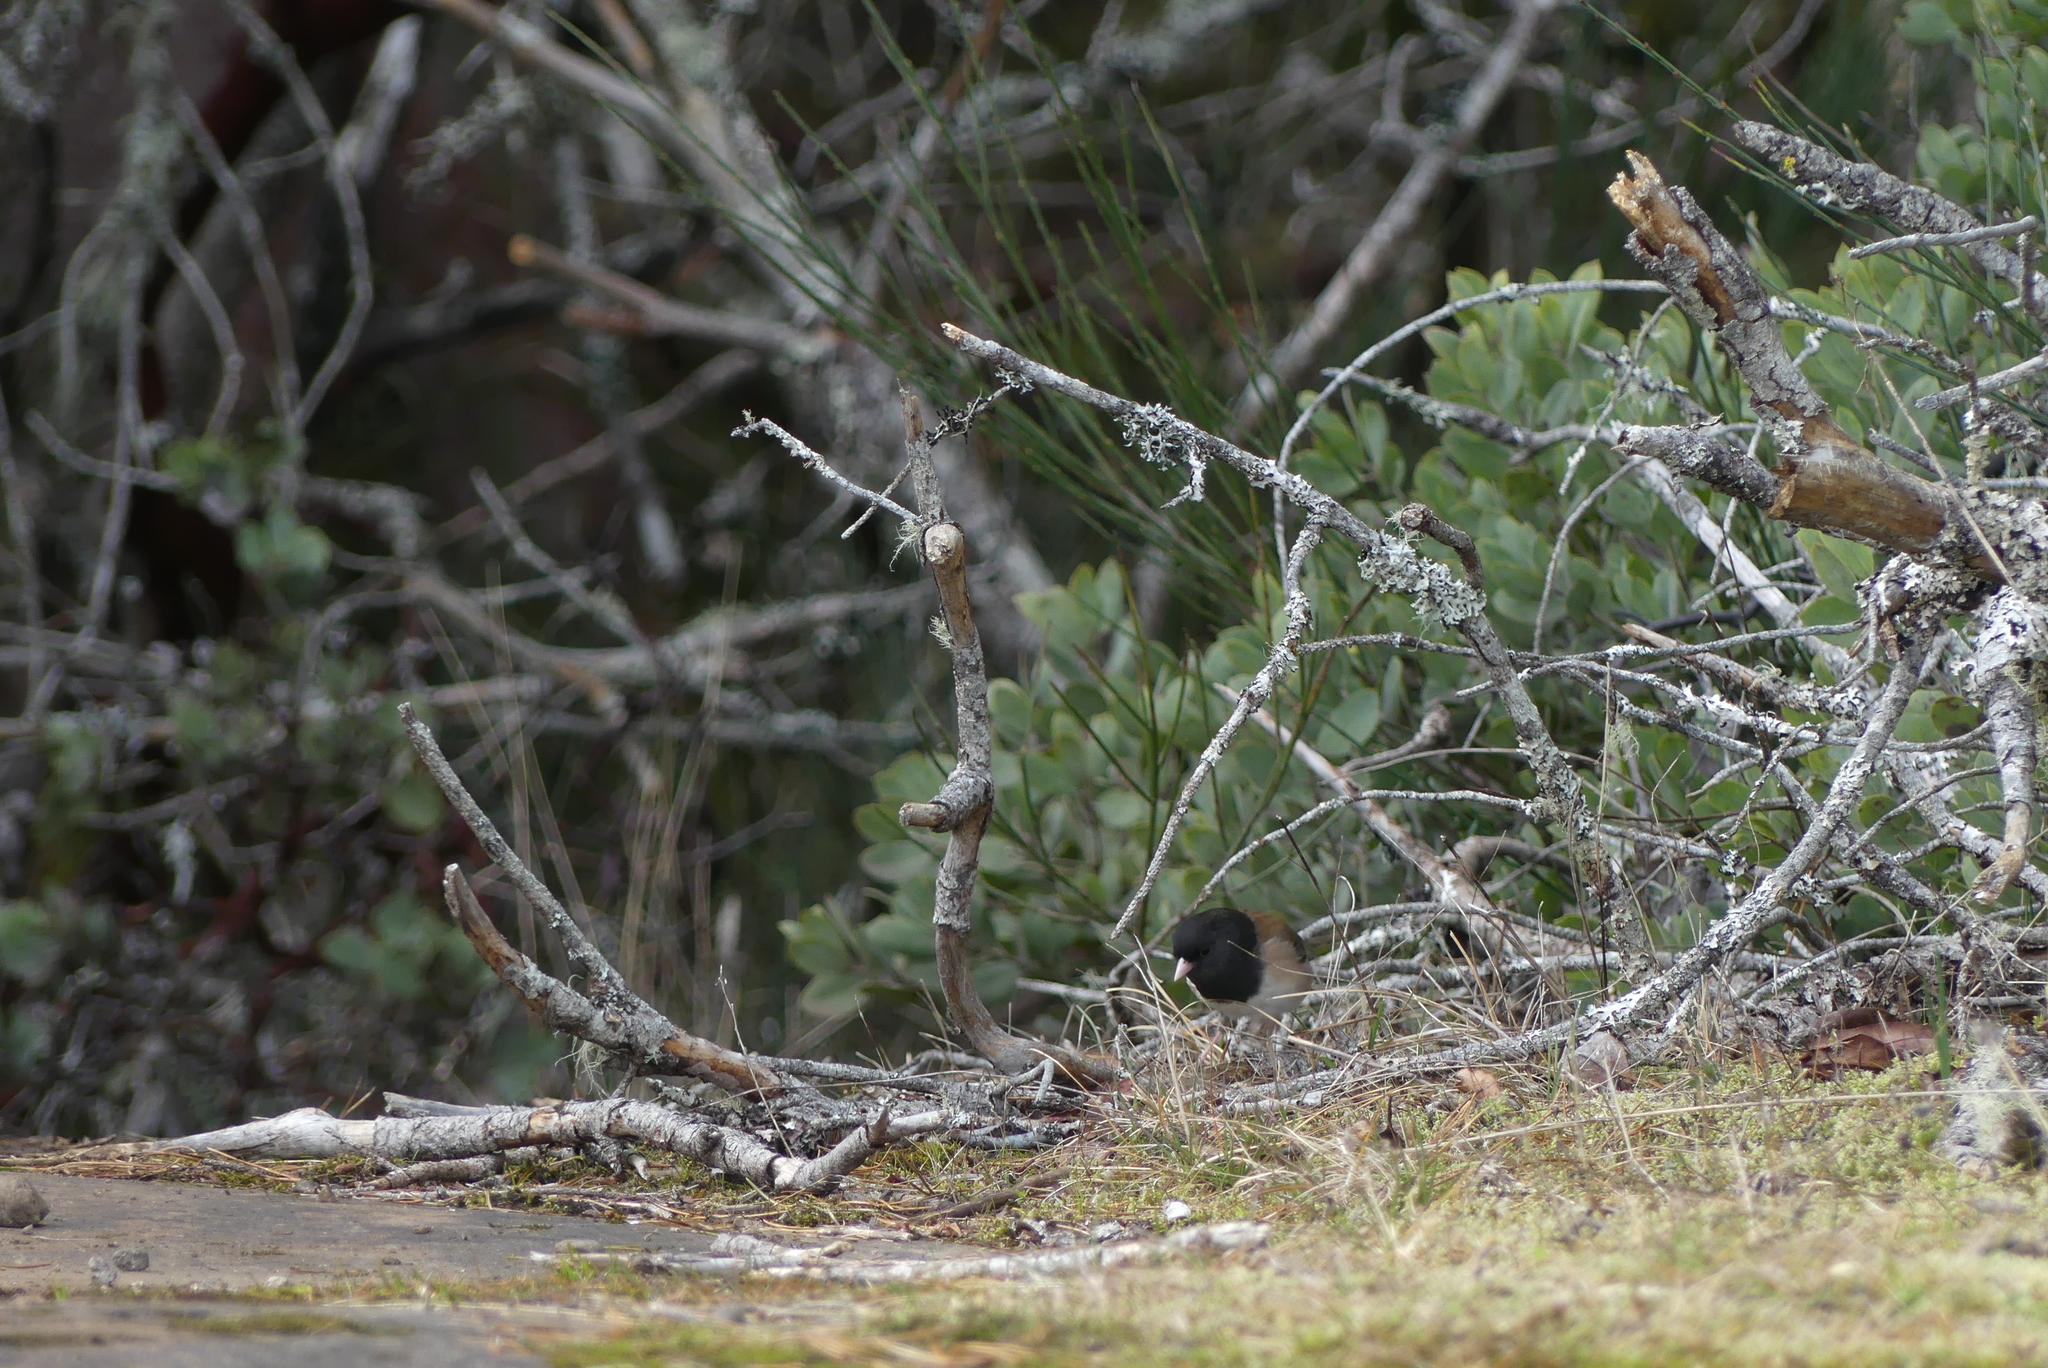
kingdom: Animalia
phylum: Chordata
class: Aves
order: Passeriformes
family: Passerellidae
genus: Junco
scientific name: Junco hyemalis
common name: Dark-eyed junco
